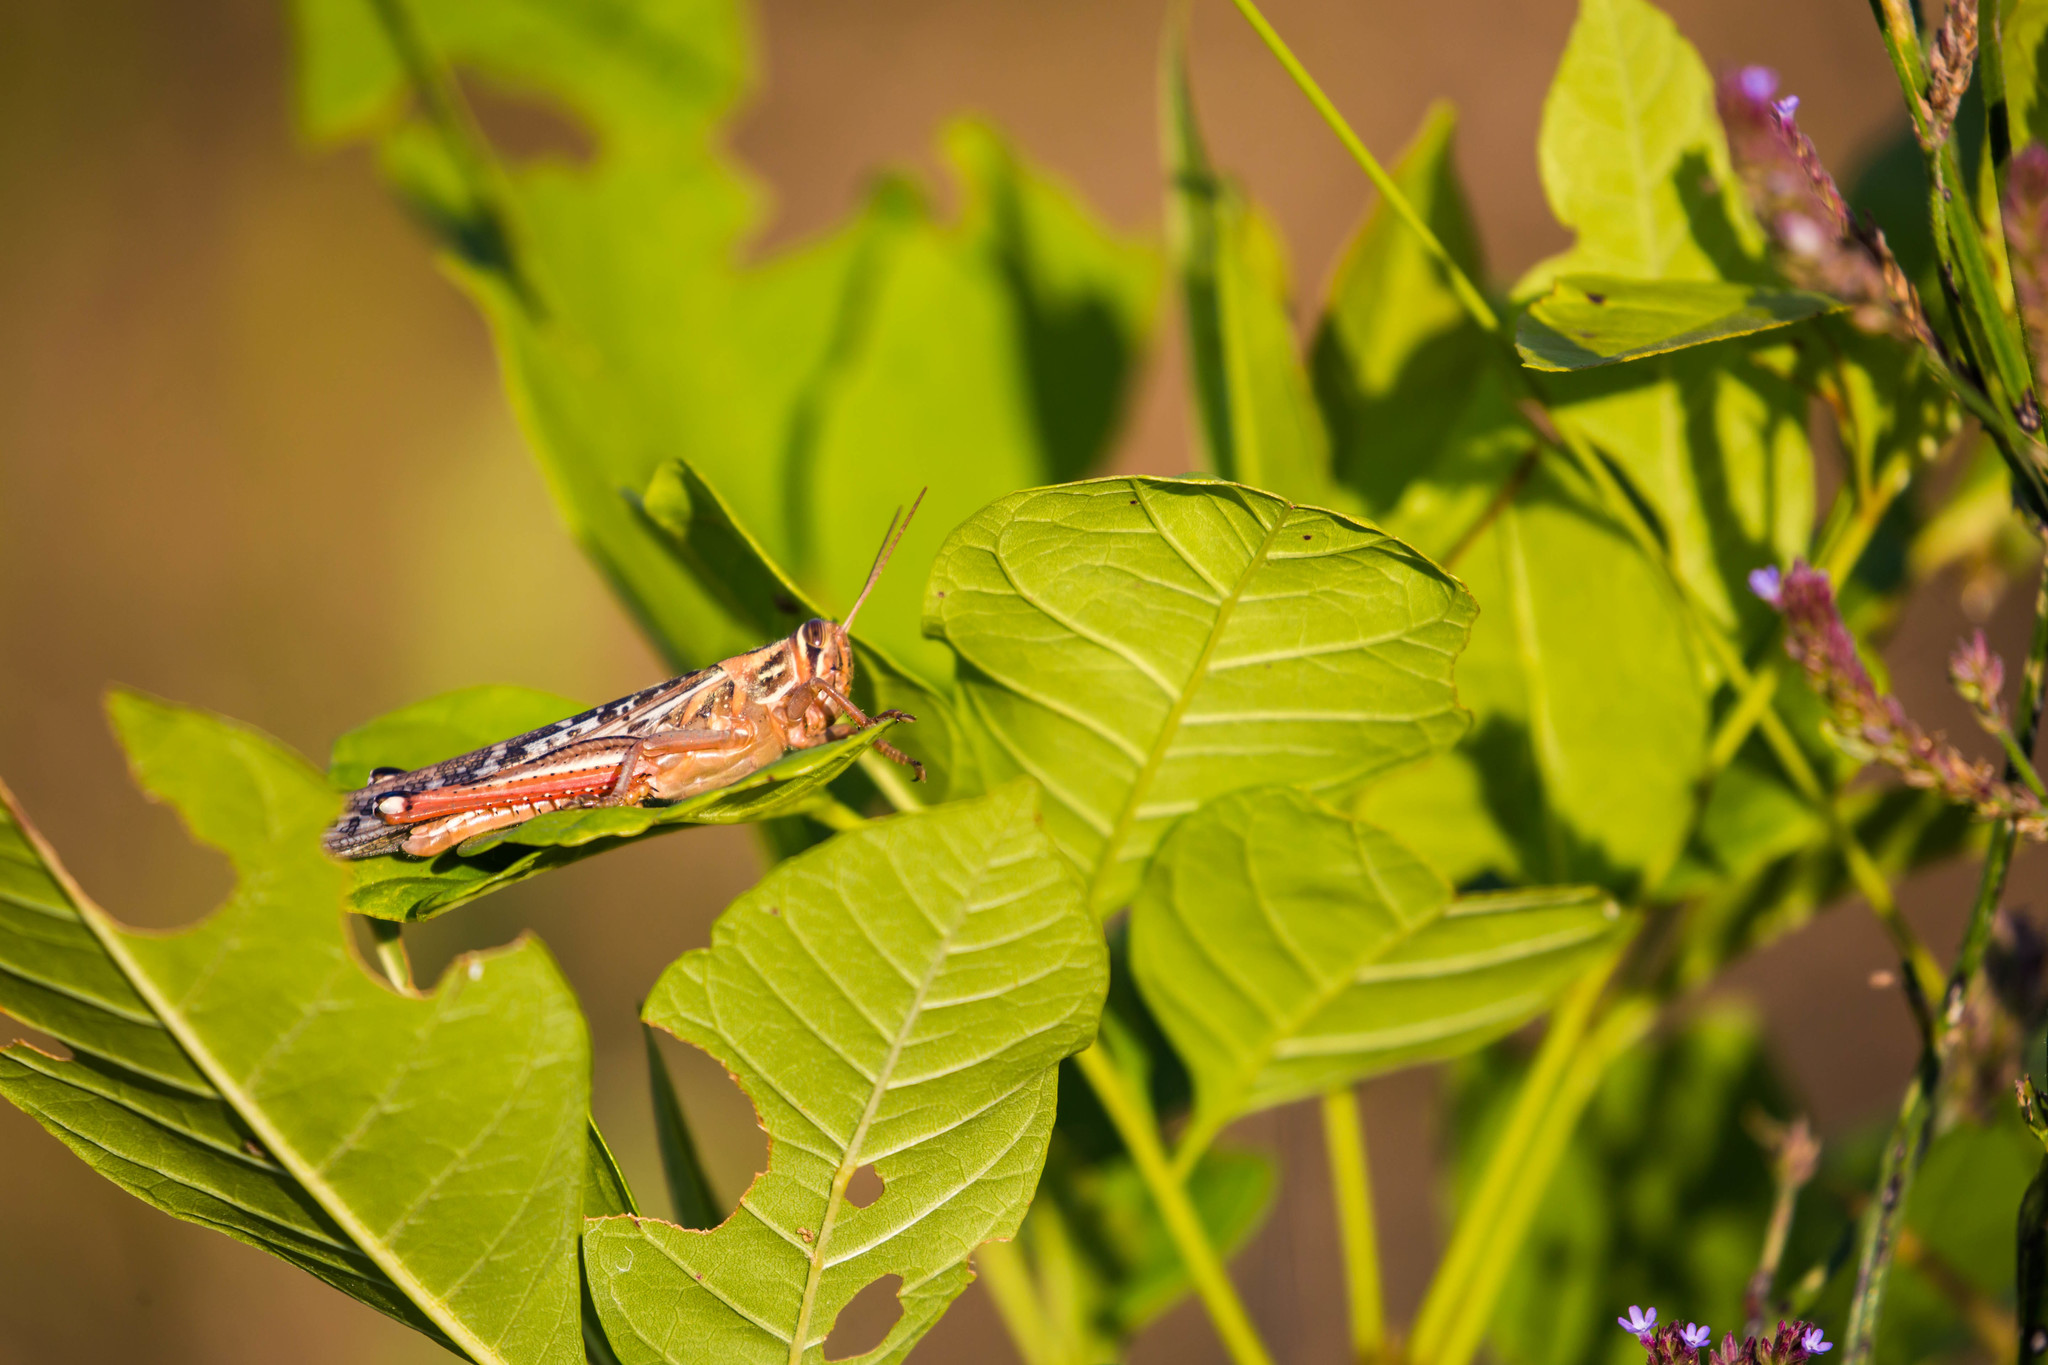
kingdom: Animalia
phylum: Arthropoda
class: Insecta
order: Orthoptera
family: Acrididae
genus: Schistocerca
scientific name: Schistocerca americana
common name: American bird locust
